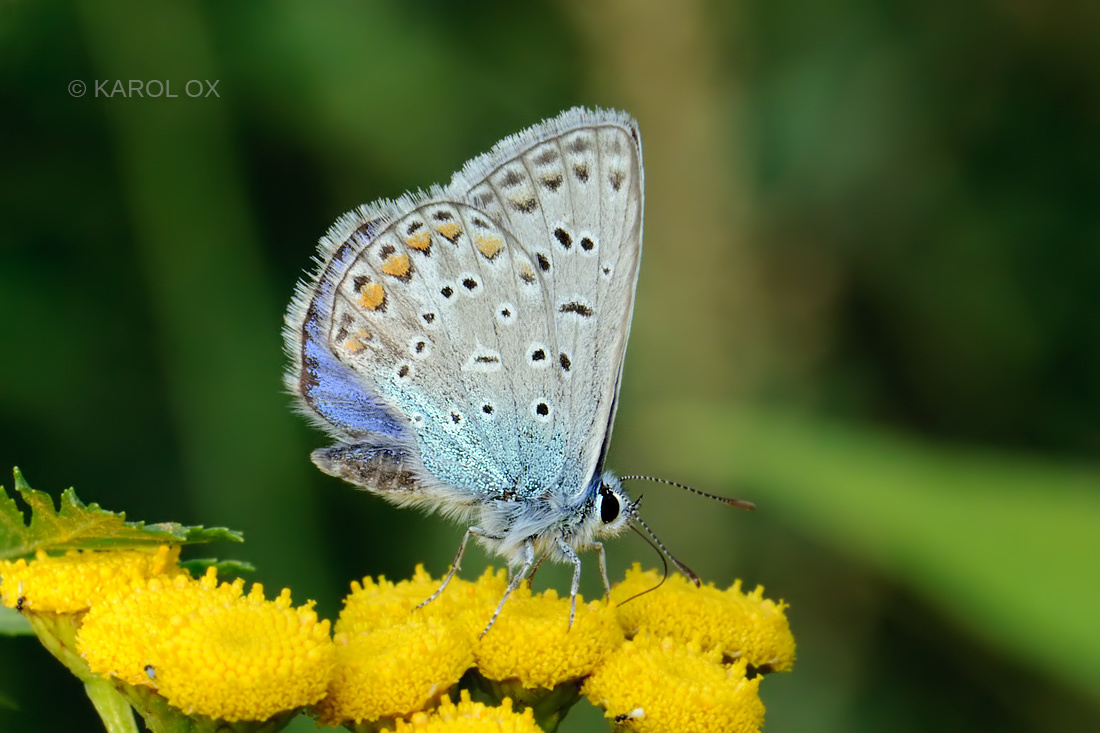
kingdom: Animalia
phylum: Arthropoda
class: Insecta
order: Lepidoptera
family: Lycaenidae
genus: Polyommatus
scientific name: Polyommatus icarus
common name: Common blue
